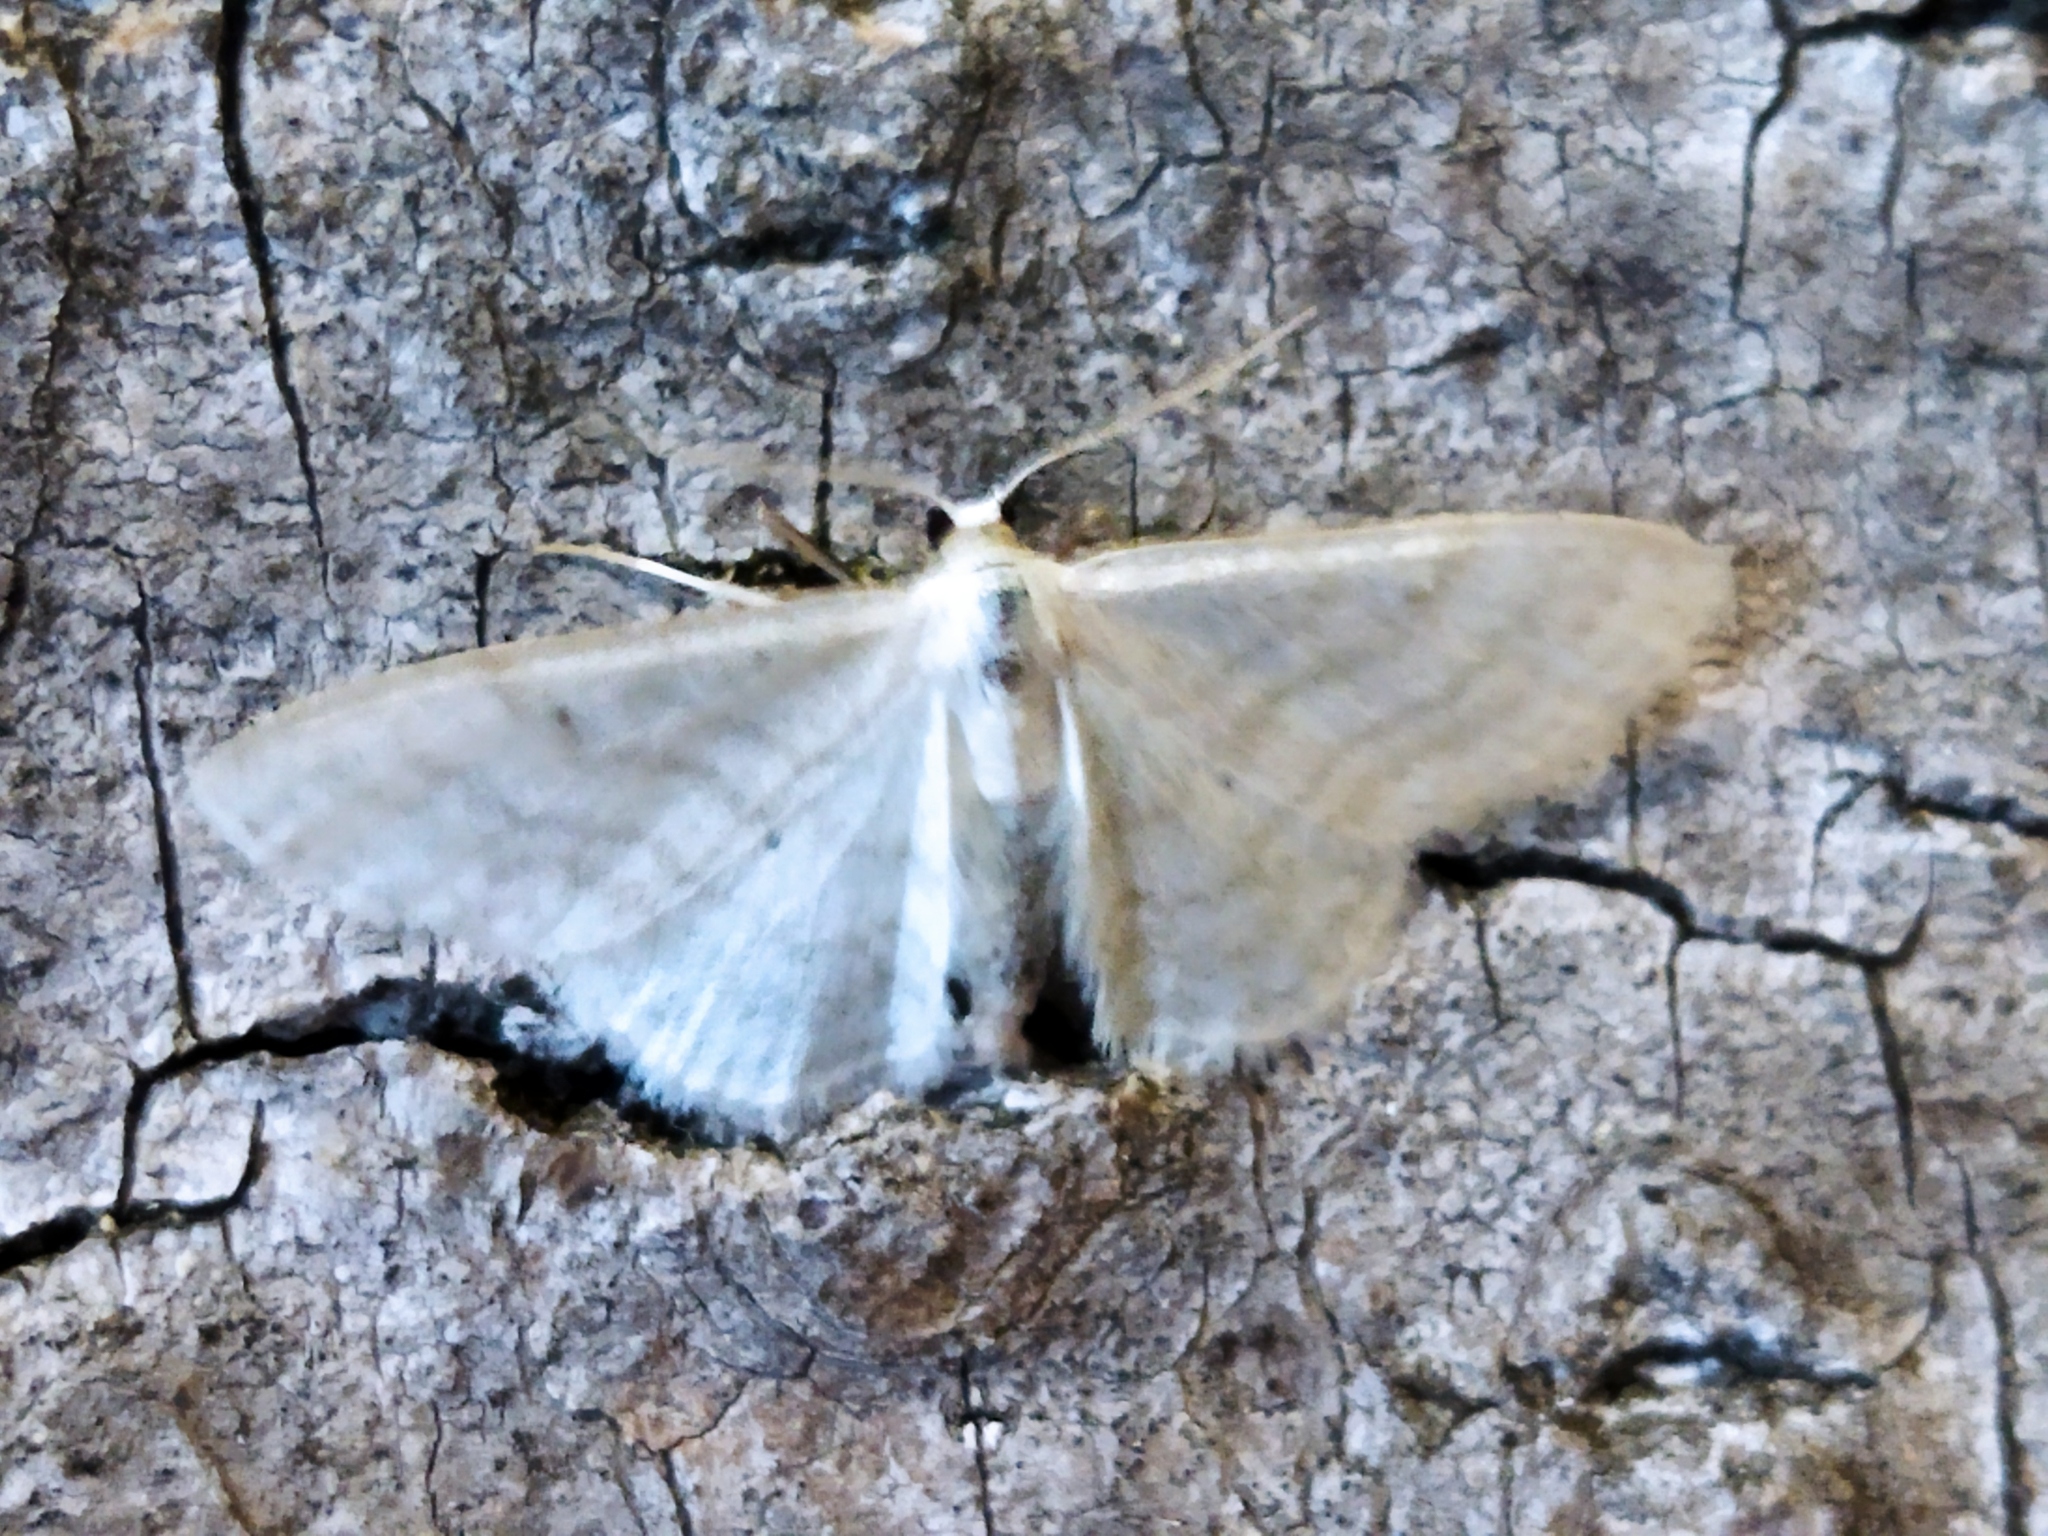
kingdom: Animalia
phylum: Arthropoda
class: Insecta
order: Lepidoptera
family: Geometridae
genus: Idaea
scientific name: Idaea subsericeata
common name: Satin wave
